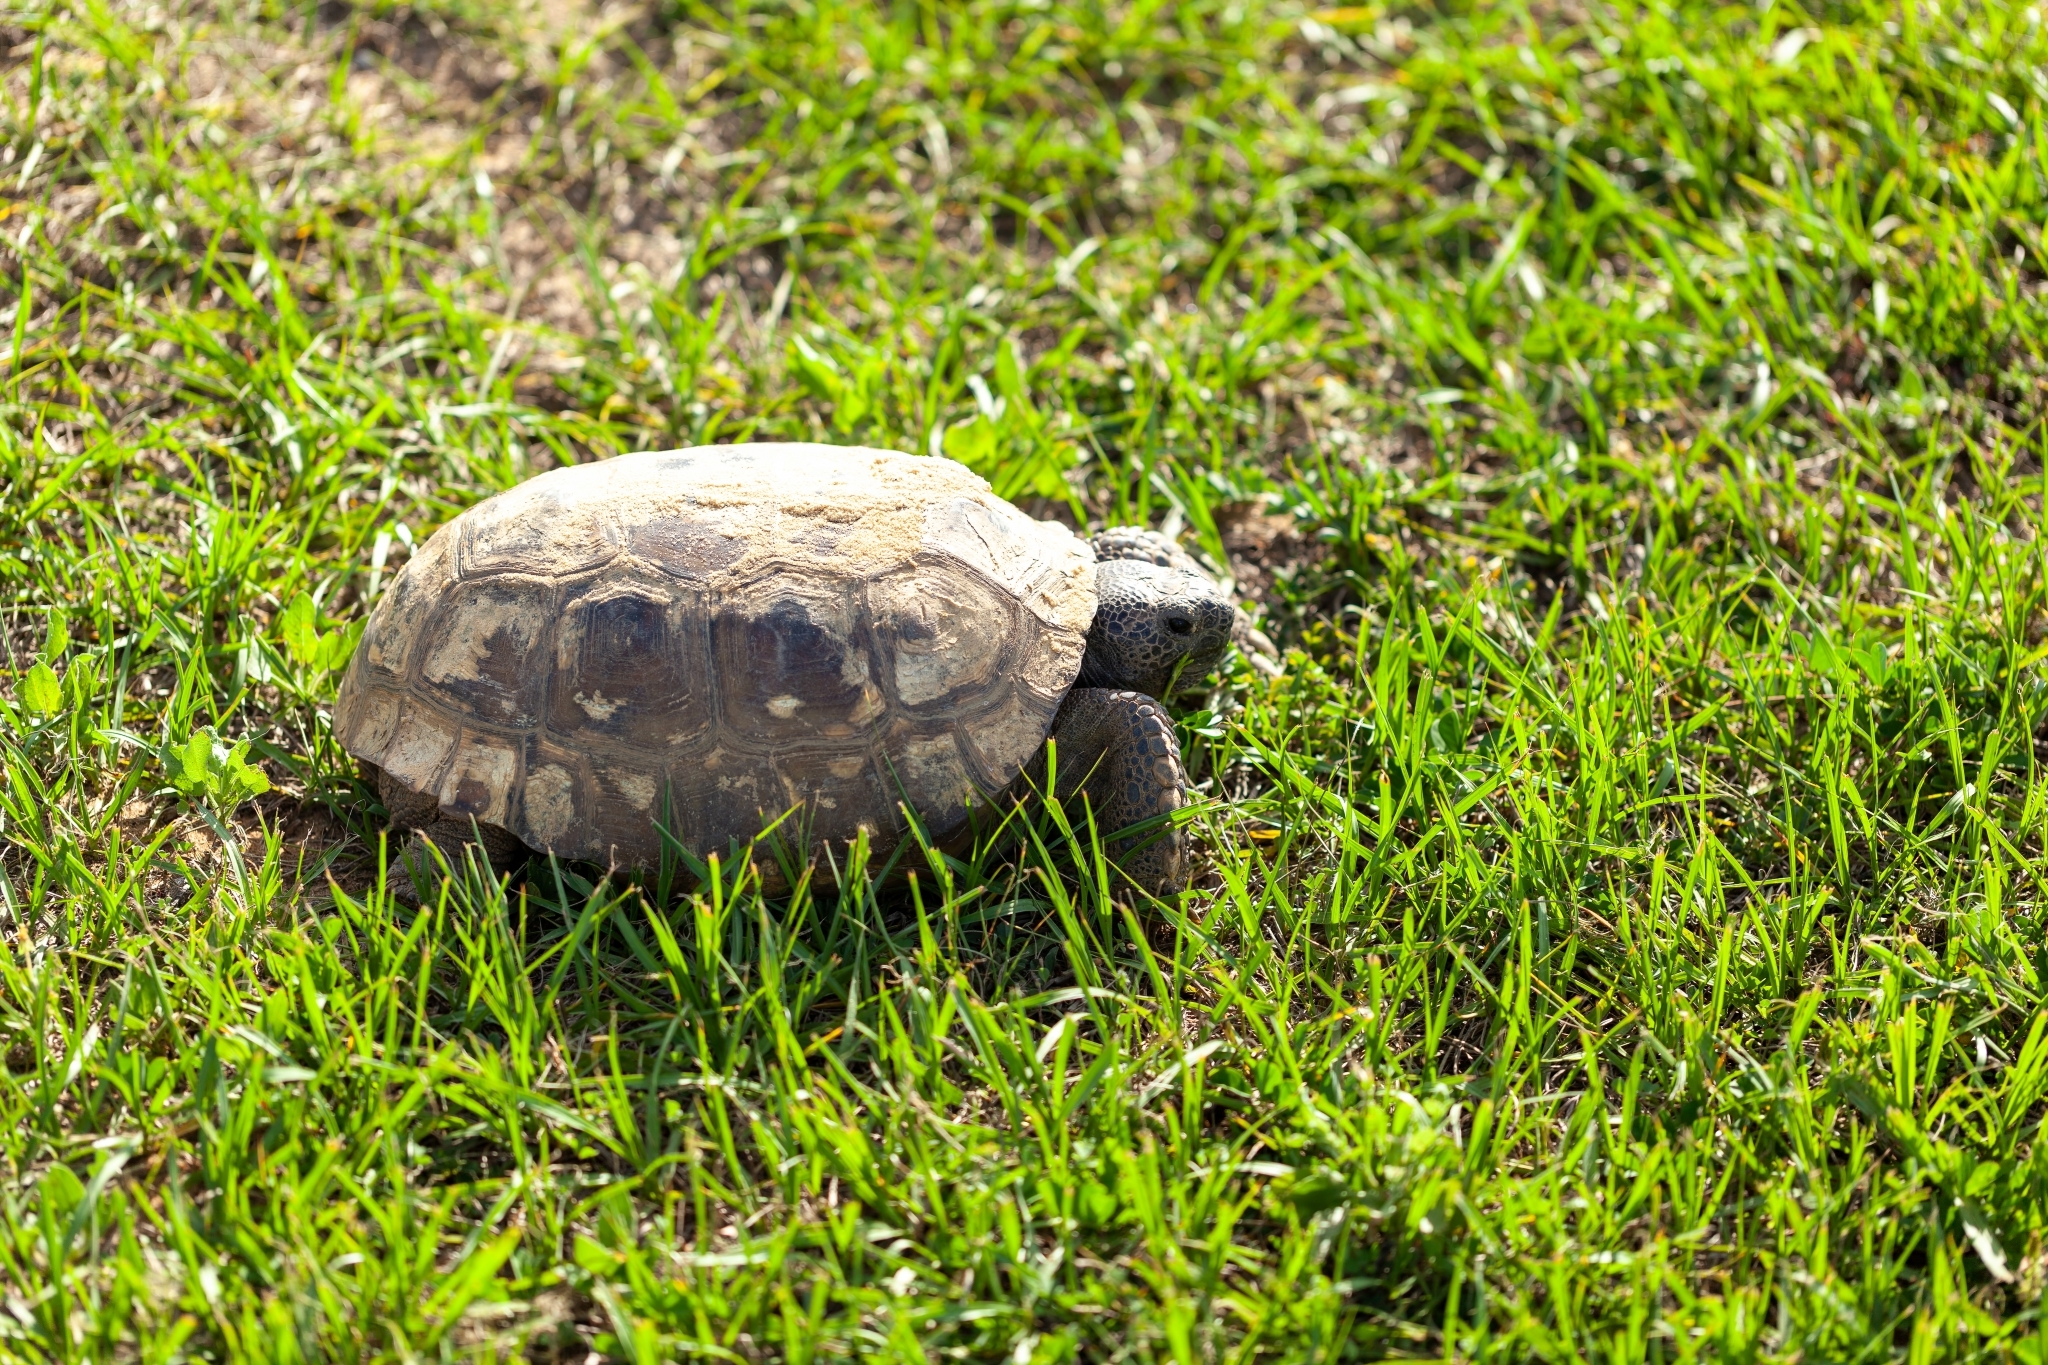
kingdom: Animalia
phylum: Chordata
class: Testudines
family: Testudinidae
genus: Gopherus
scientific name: Gopherus polyphemus
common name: Florida gopher tortoise
